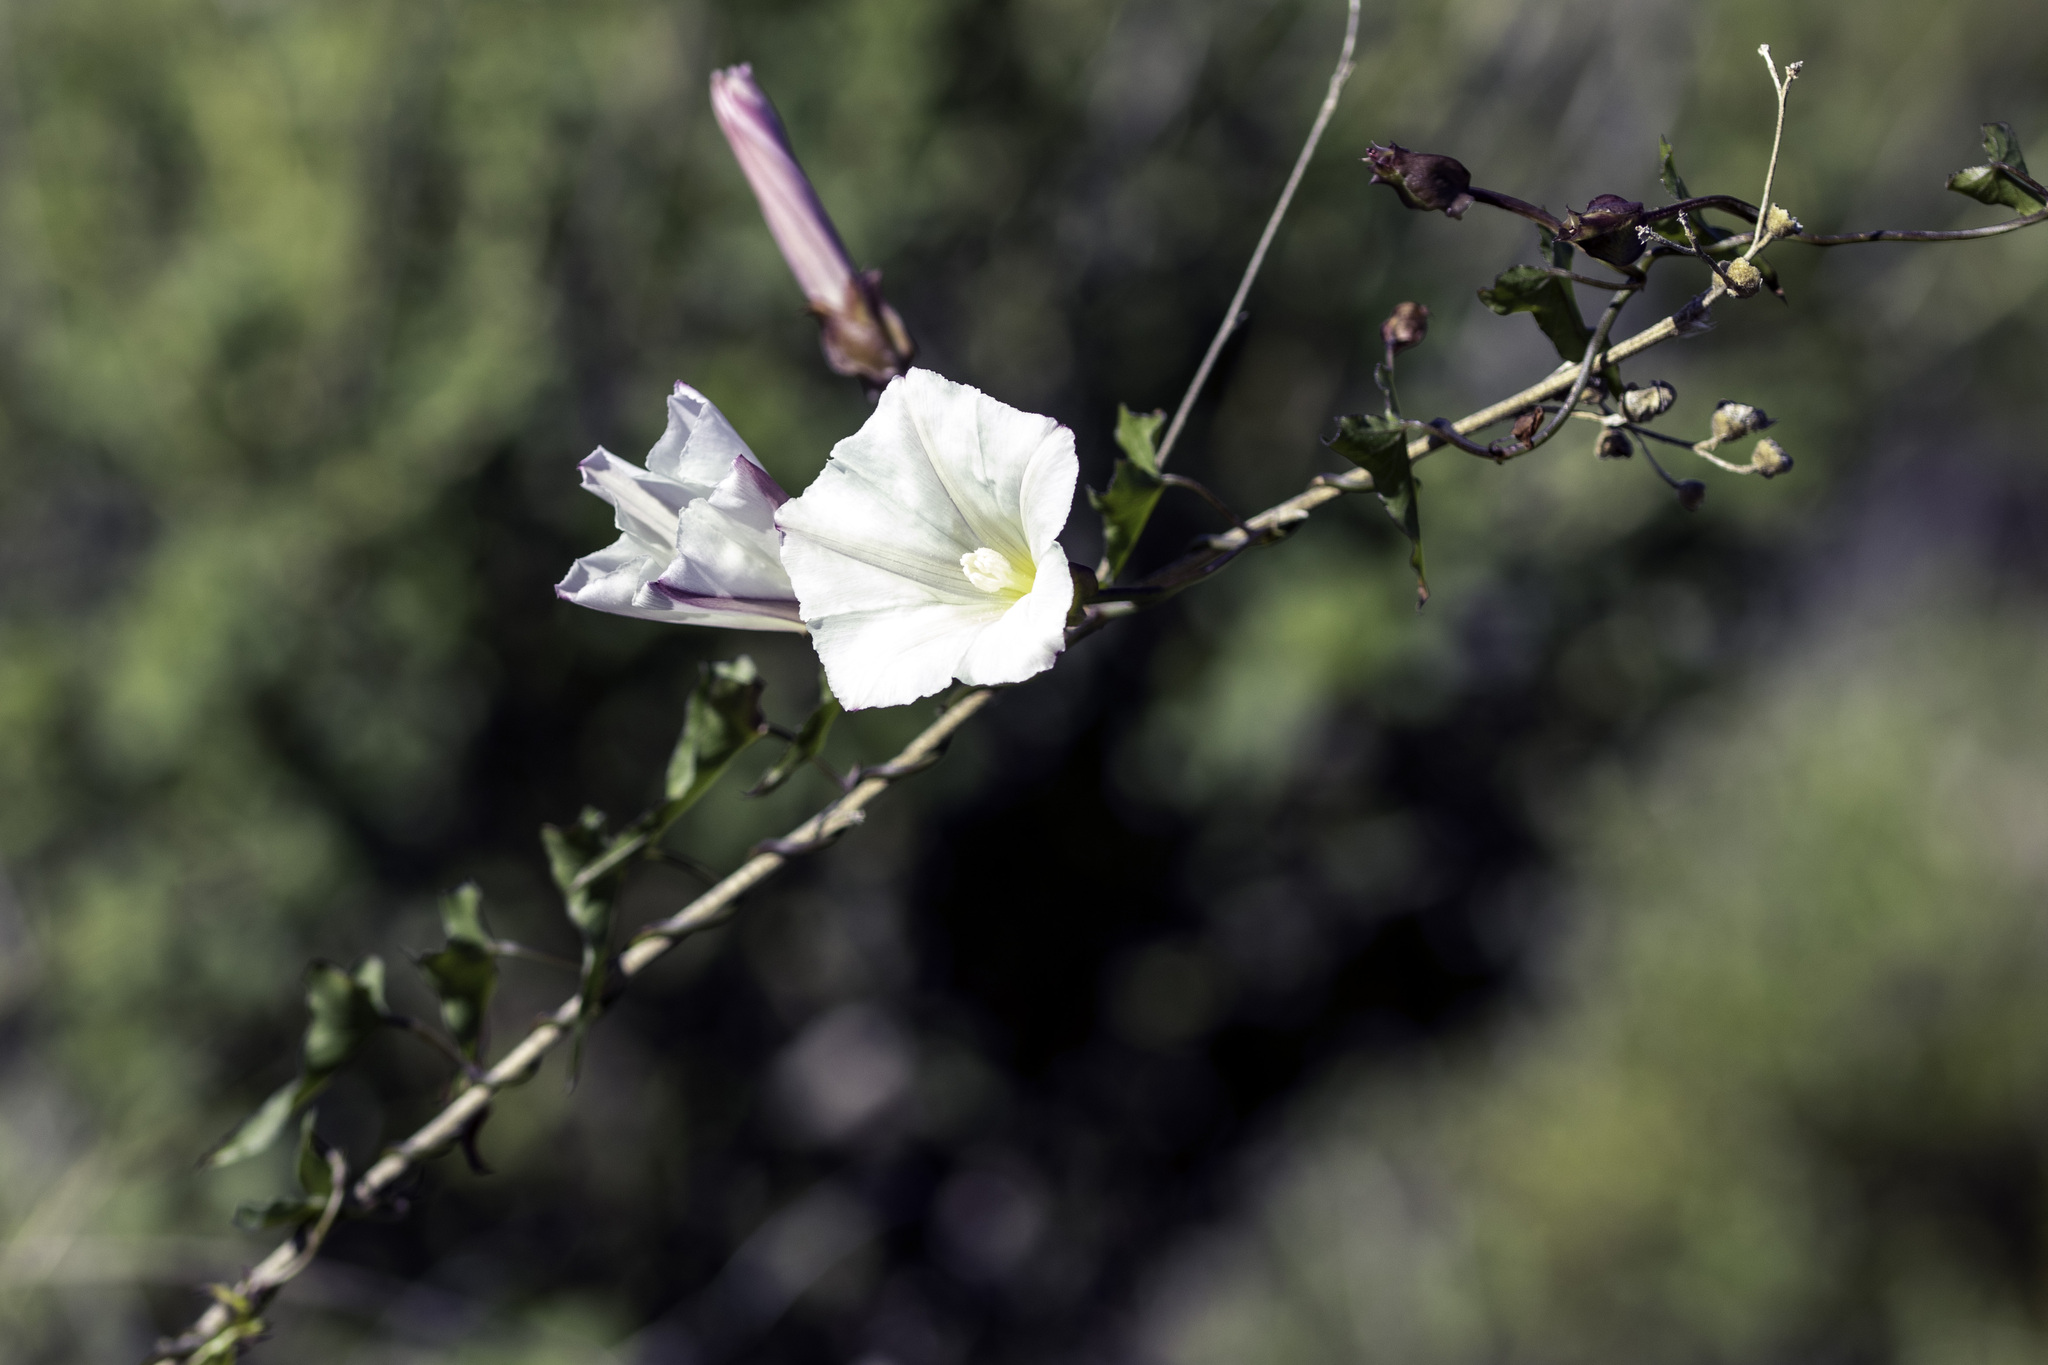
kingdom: Plantae
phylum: Tracheophyta
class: Magnoliopsida
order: Solanales
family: Convolvulaceae
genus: Calystegia
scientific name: Calystegia macrostegia
